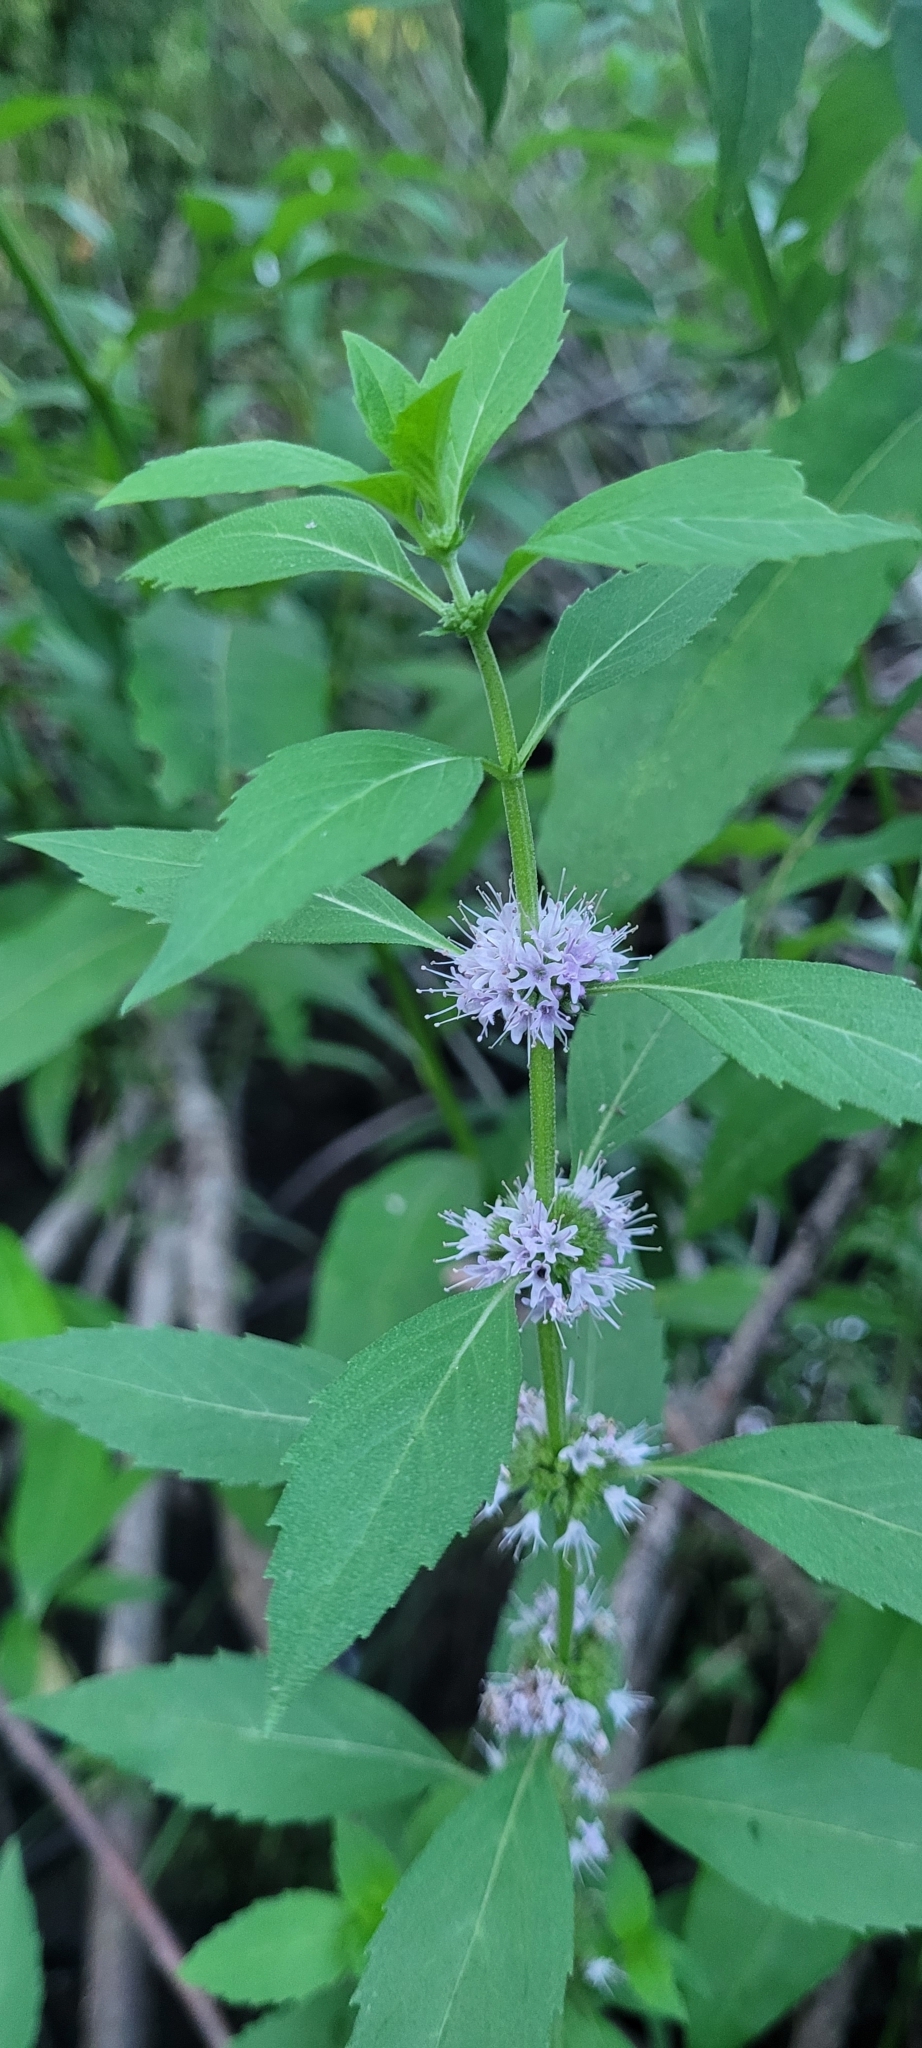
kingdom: Plantae
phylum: Tracheophyta
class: Magnoliopsida
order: Lamiales
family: Lamiaceae
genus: Mentha
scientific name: Mentha canadensis
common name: American corn mint
